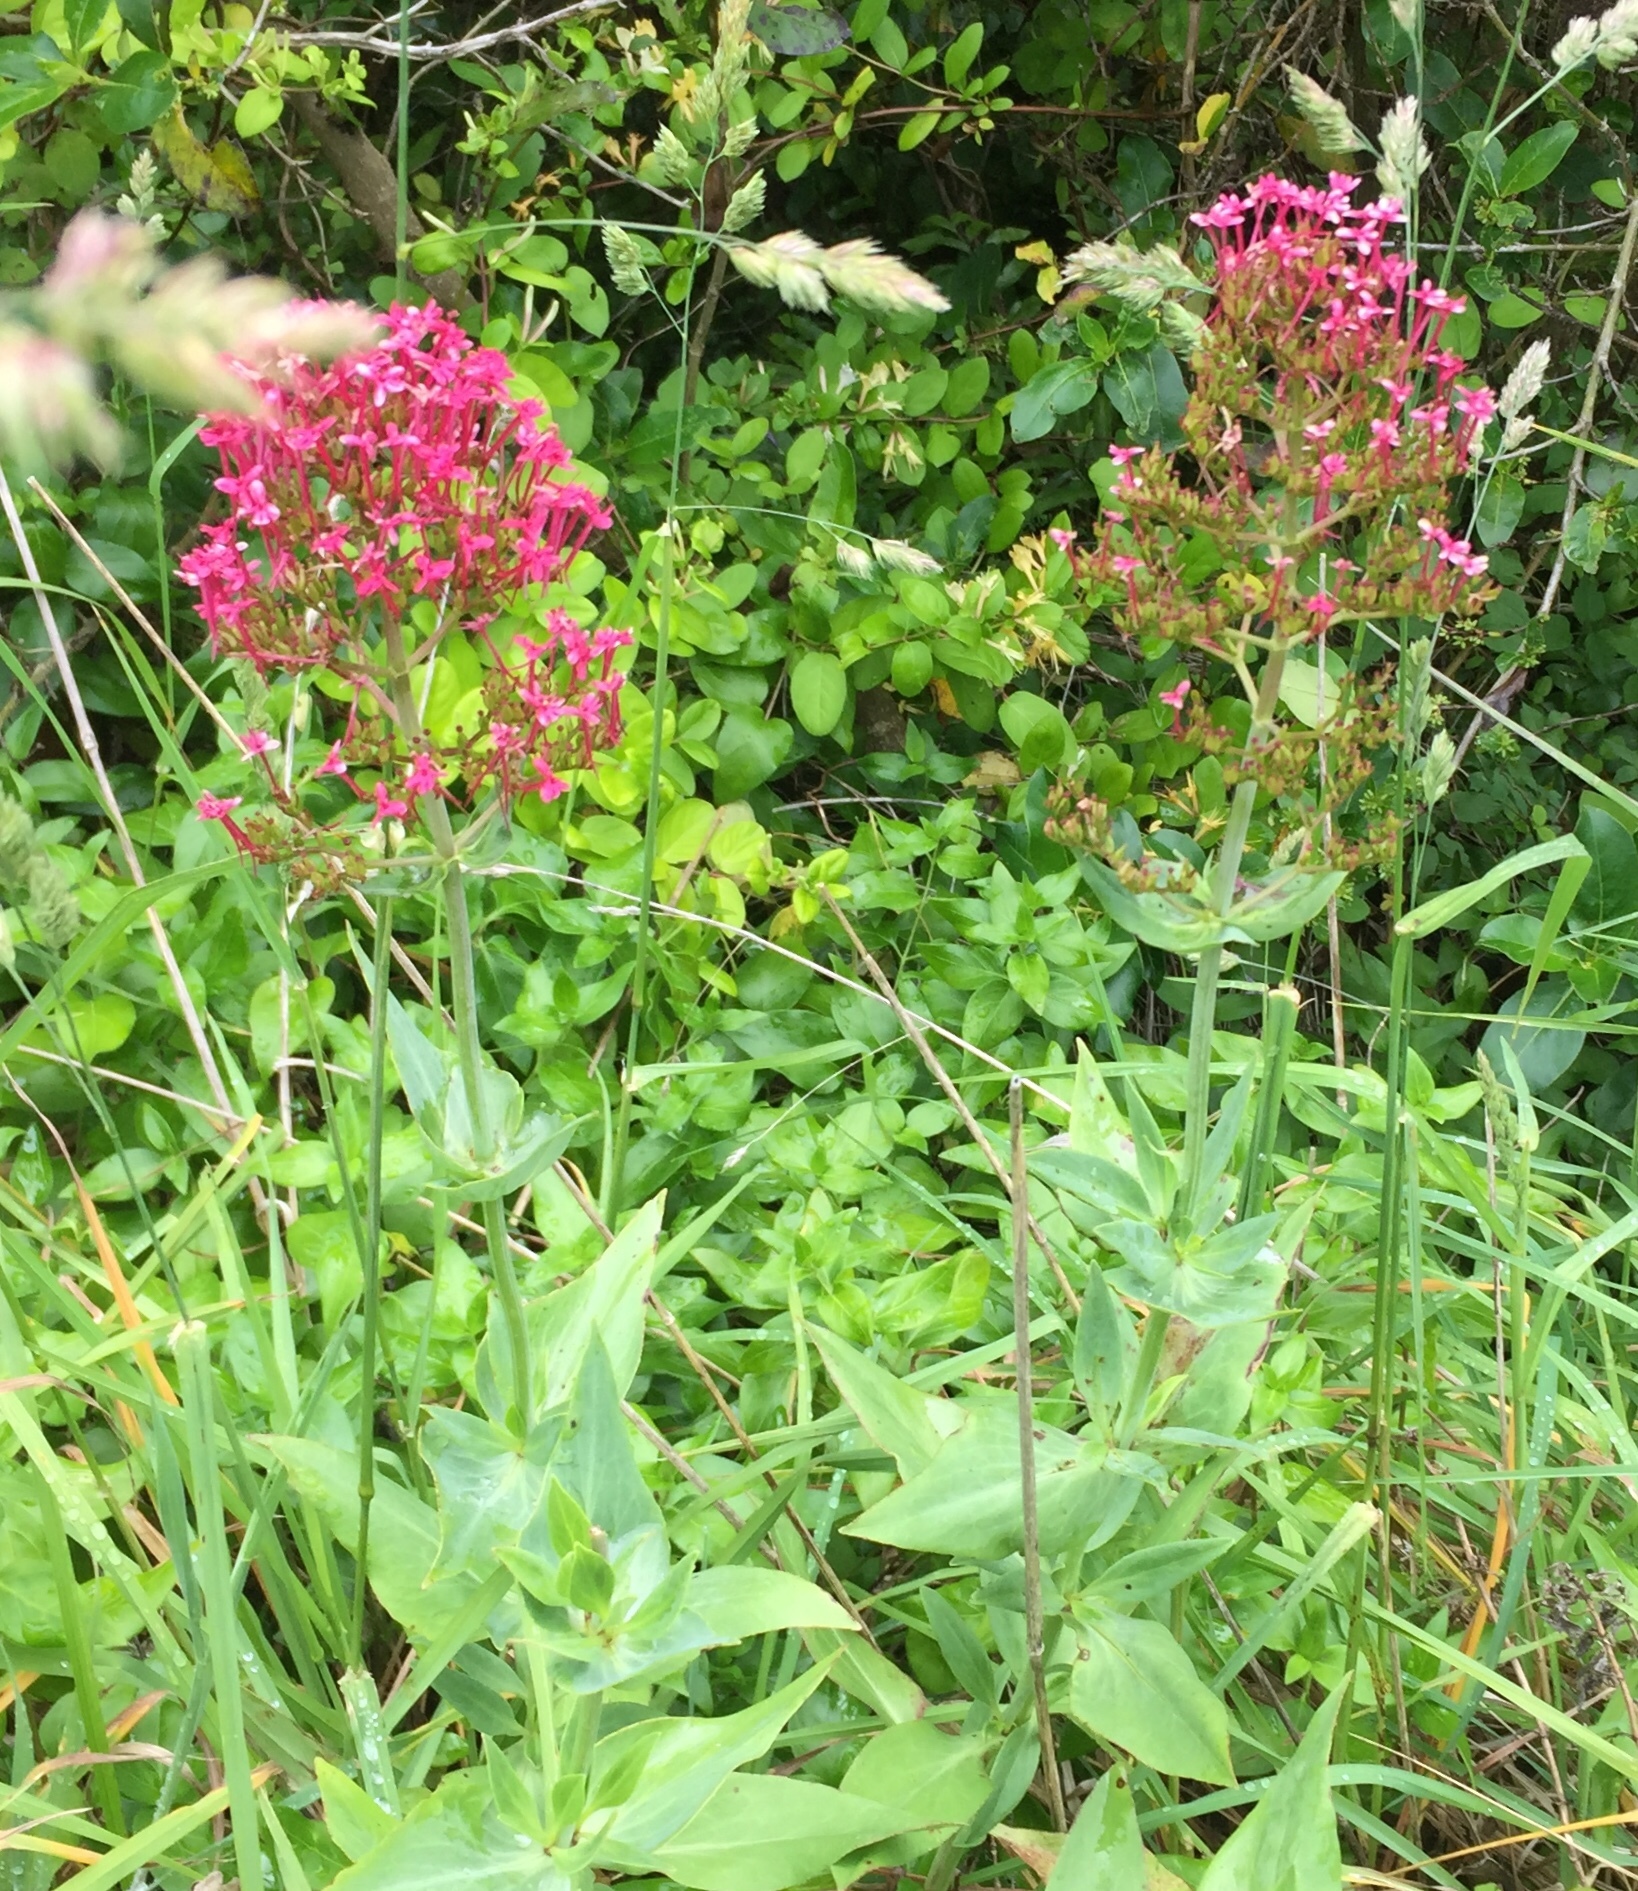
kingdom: Plantae
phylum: Tracheophyta
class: Magnoliopsida
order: Dipsacales
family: Caprifoliaceae
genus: Centranthus
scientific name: Centranthus ruber
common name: Red valerian
